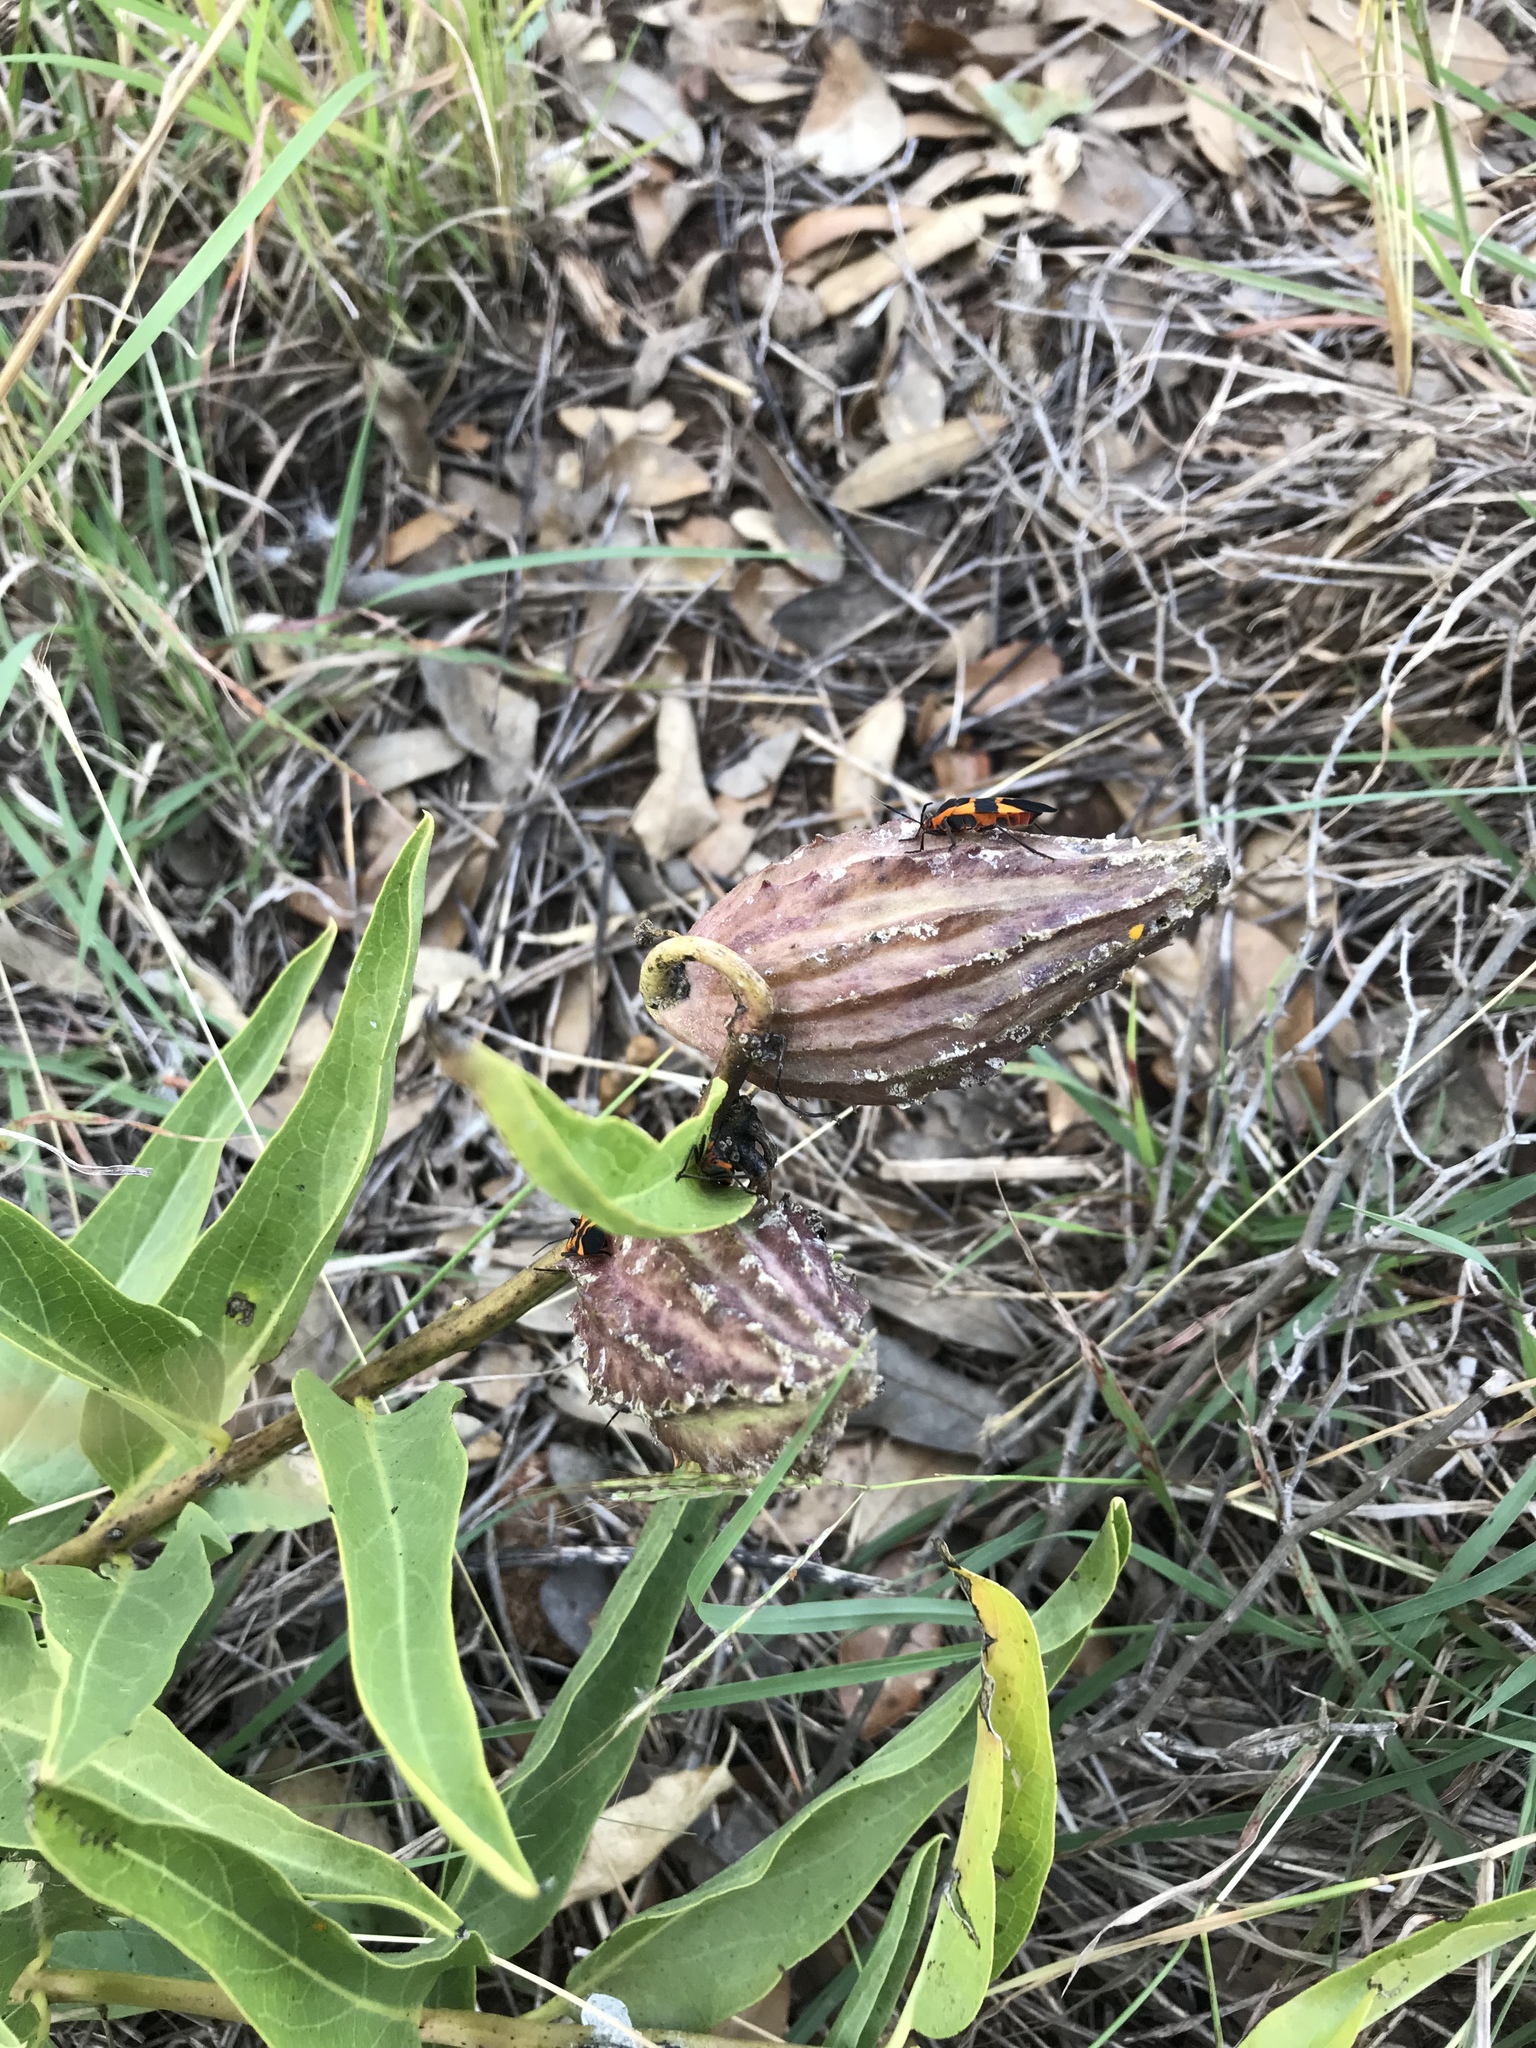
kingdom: Plantae
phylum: Tracheophyta
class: Magnoliopsida
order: Gentianales
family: Apocynaceae
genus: Asclepias
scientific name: Asclepias asperula
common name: Antelope horns
